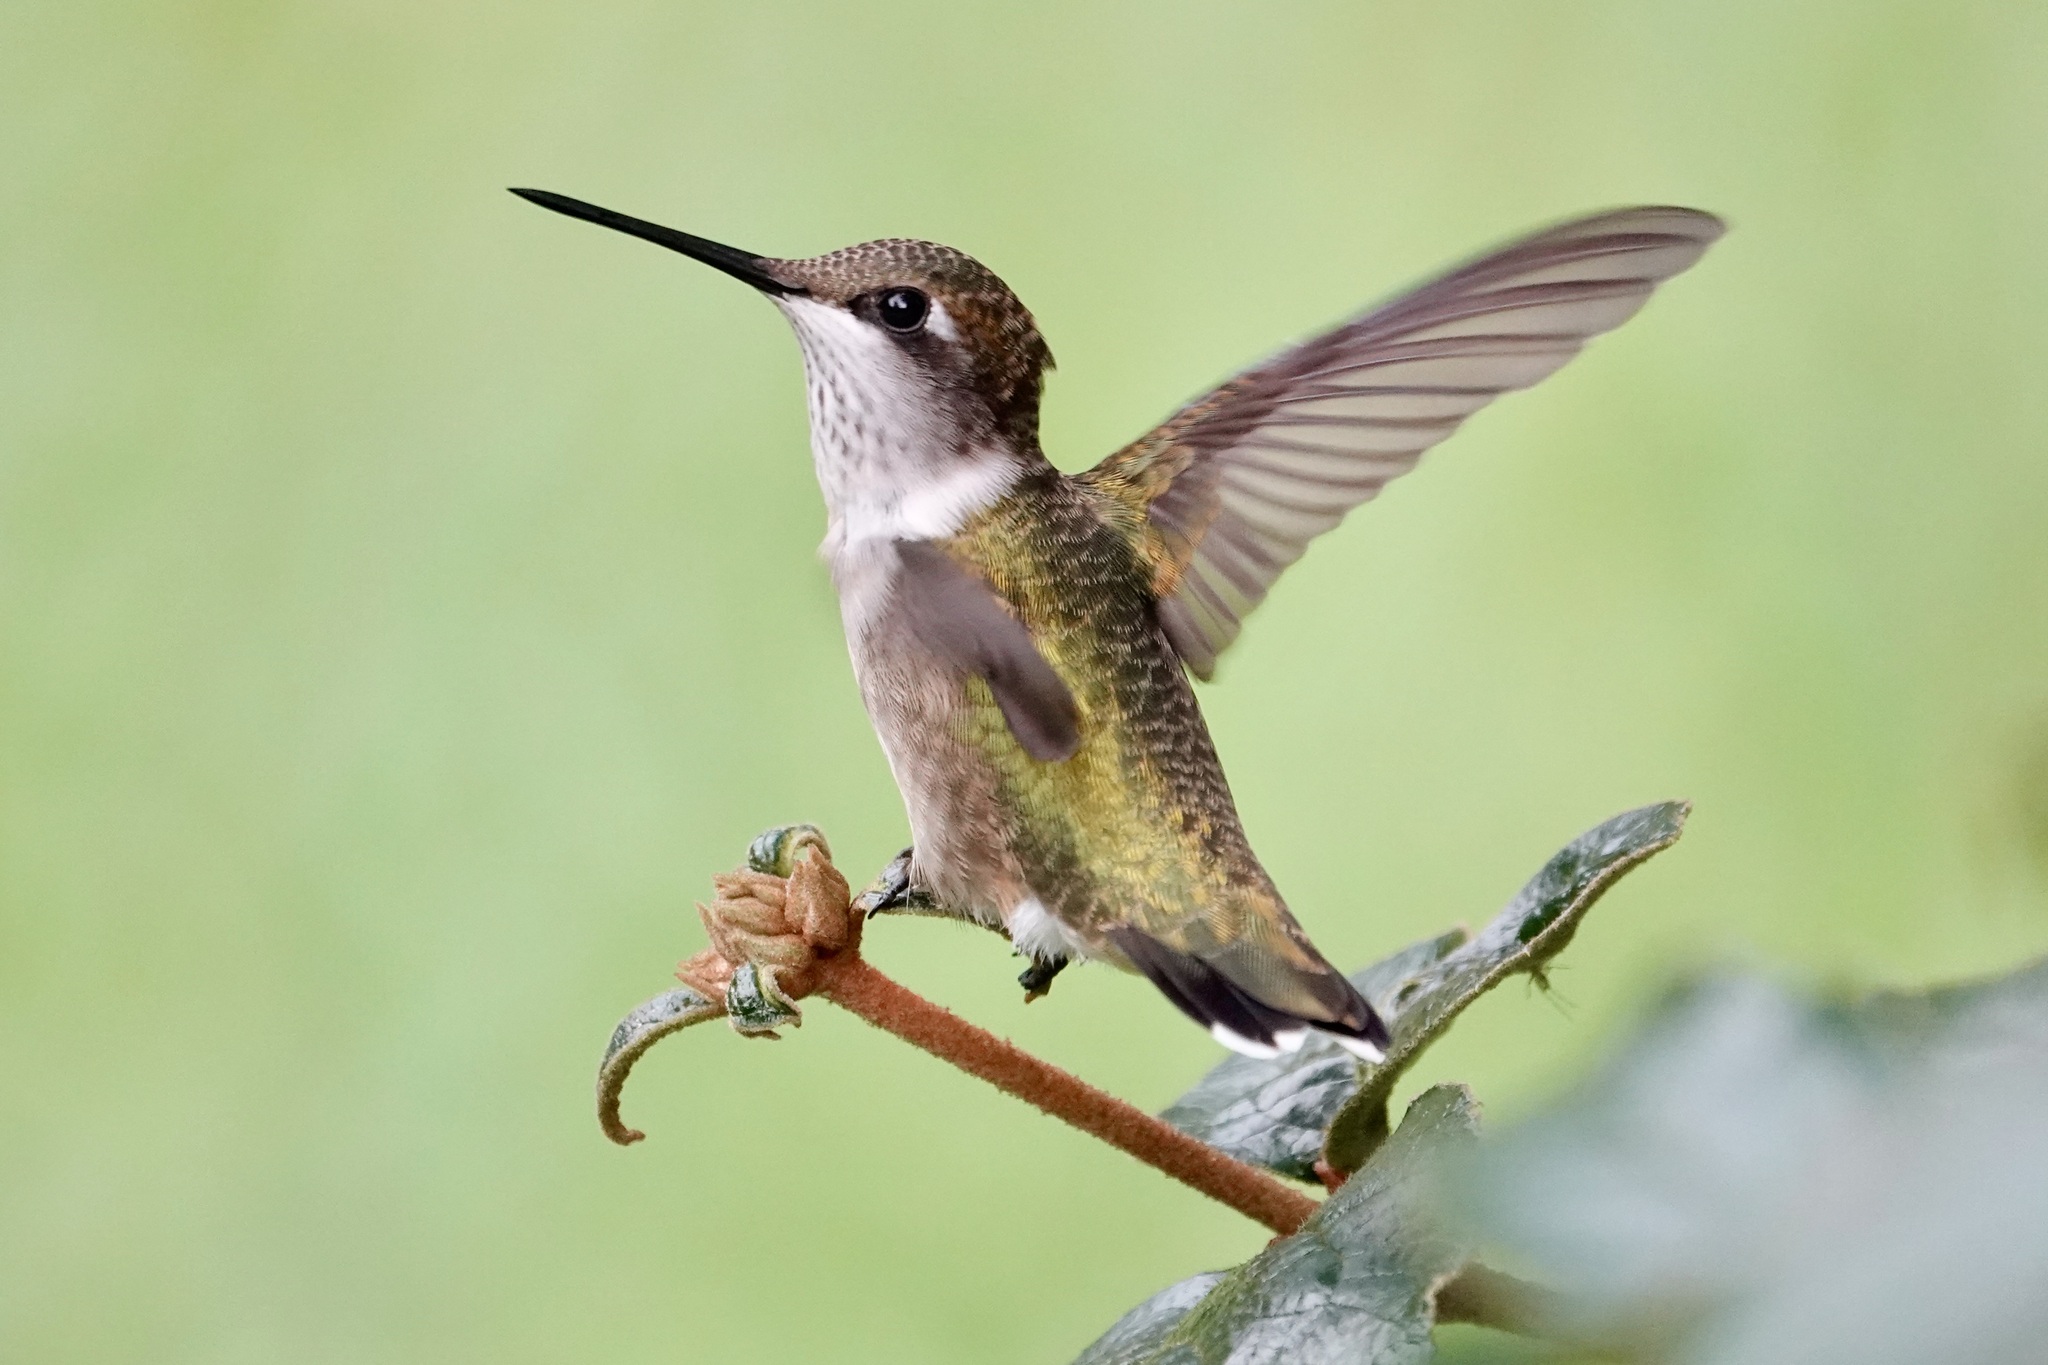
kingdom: Animalia
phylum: Chordata
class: Aves
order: Apodiformes
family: Trochilidae
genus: Archilochus
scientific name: Archilochus colubris
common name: Ruby-throated hummingbird
